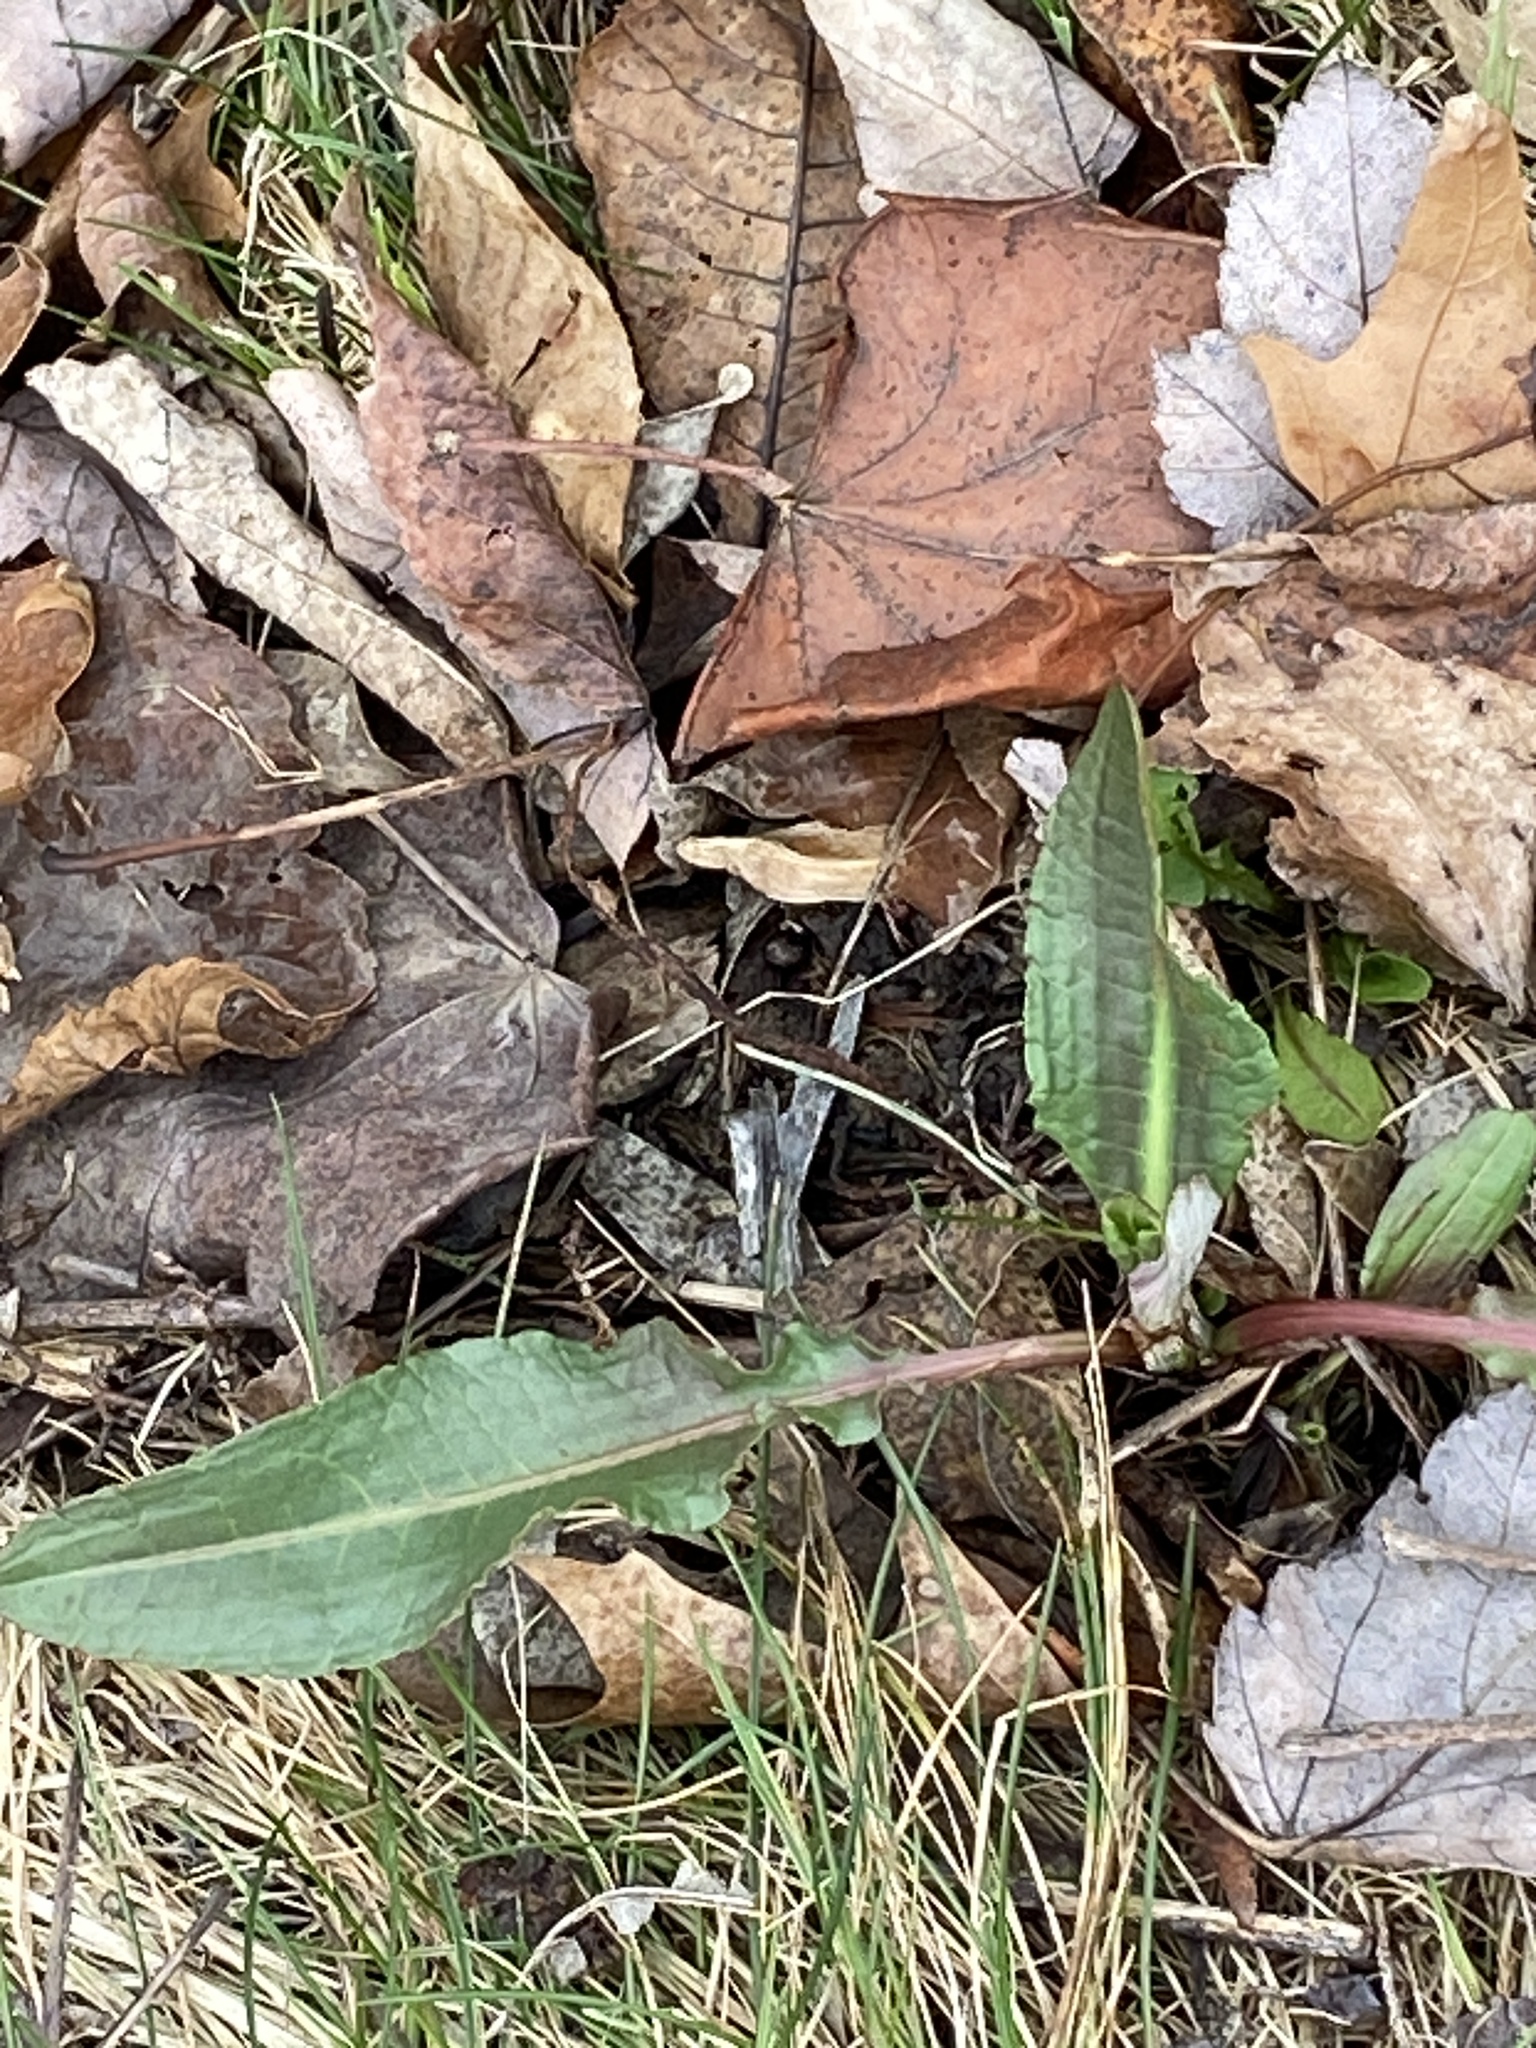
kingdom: Plantae
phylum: Tracheophyta
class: Magnoliopsida
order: Caryophyllales
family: Polygonaceae
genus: Rumex
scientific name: Rumex crispus
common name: Curled dock
